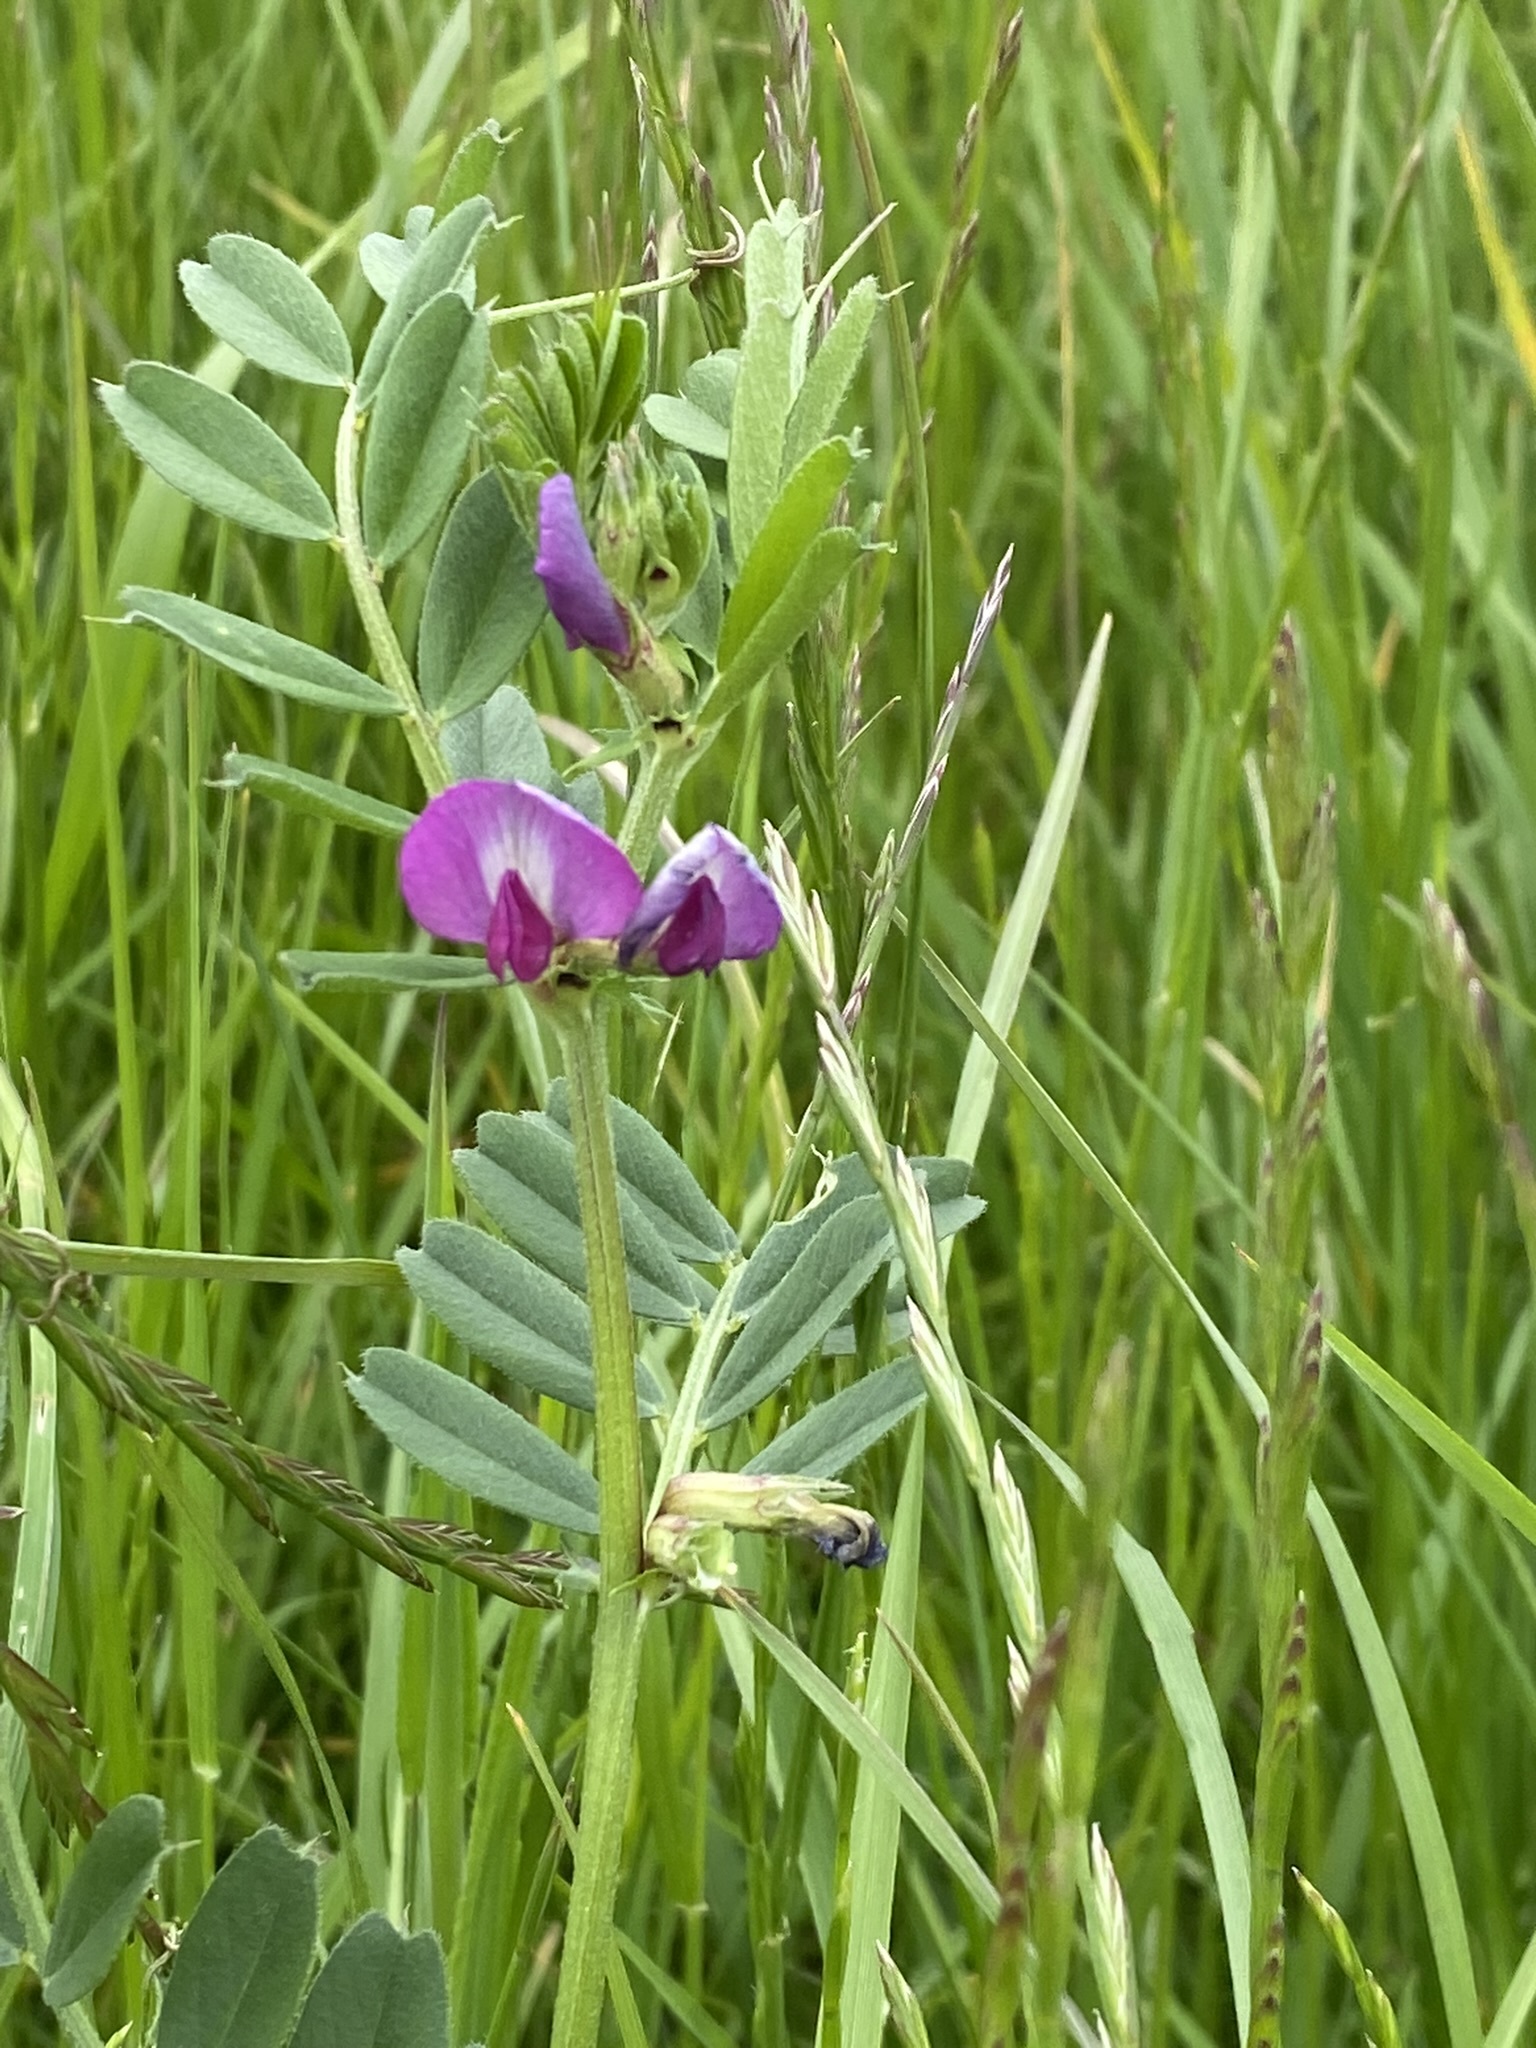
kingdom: Plantae
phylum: Tracheophyta
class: Magnoliopsida
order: Fabales
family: Fabaceae
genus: Vicia
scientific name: Vicia sativa
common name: Garden vetch
